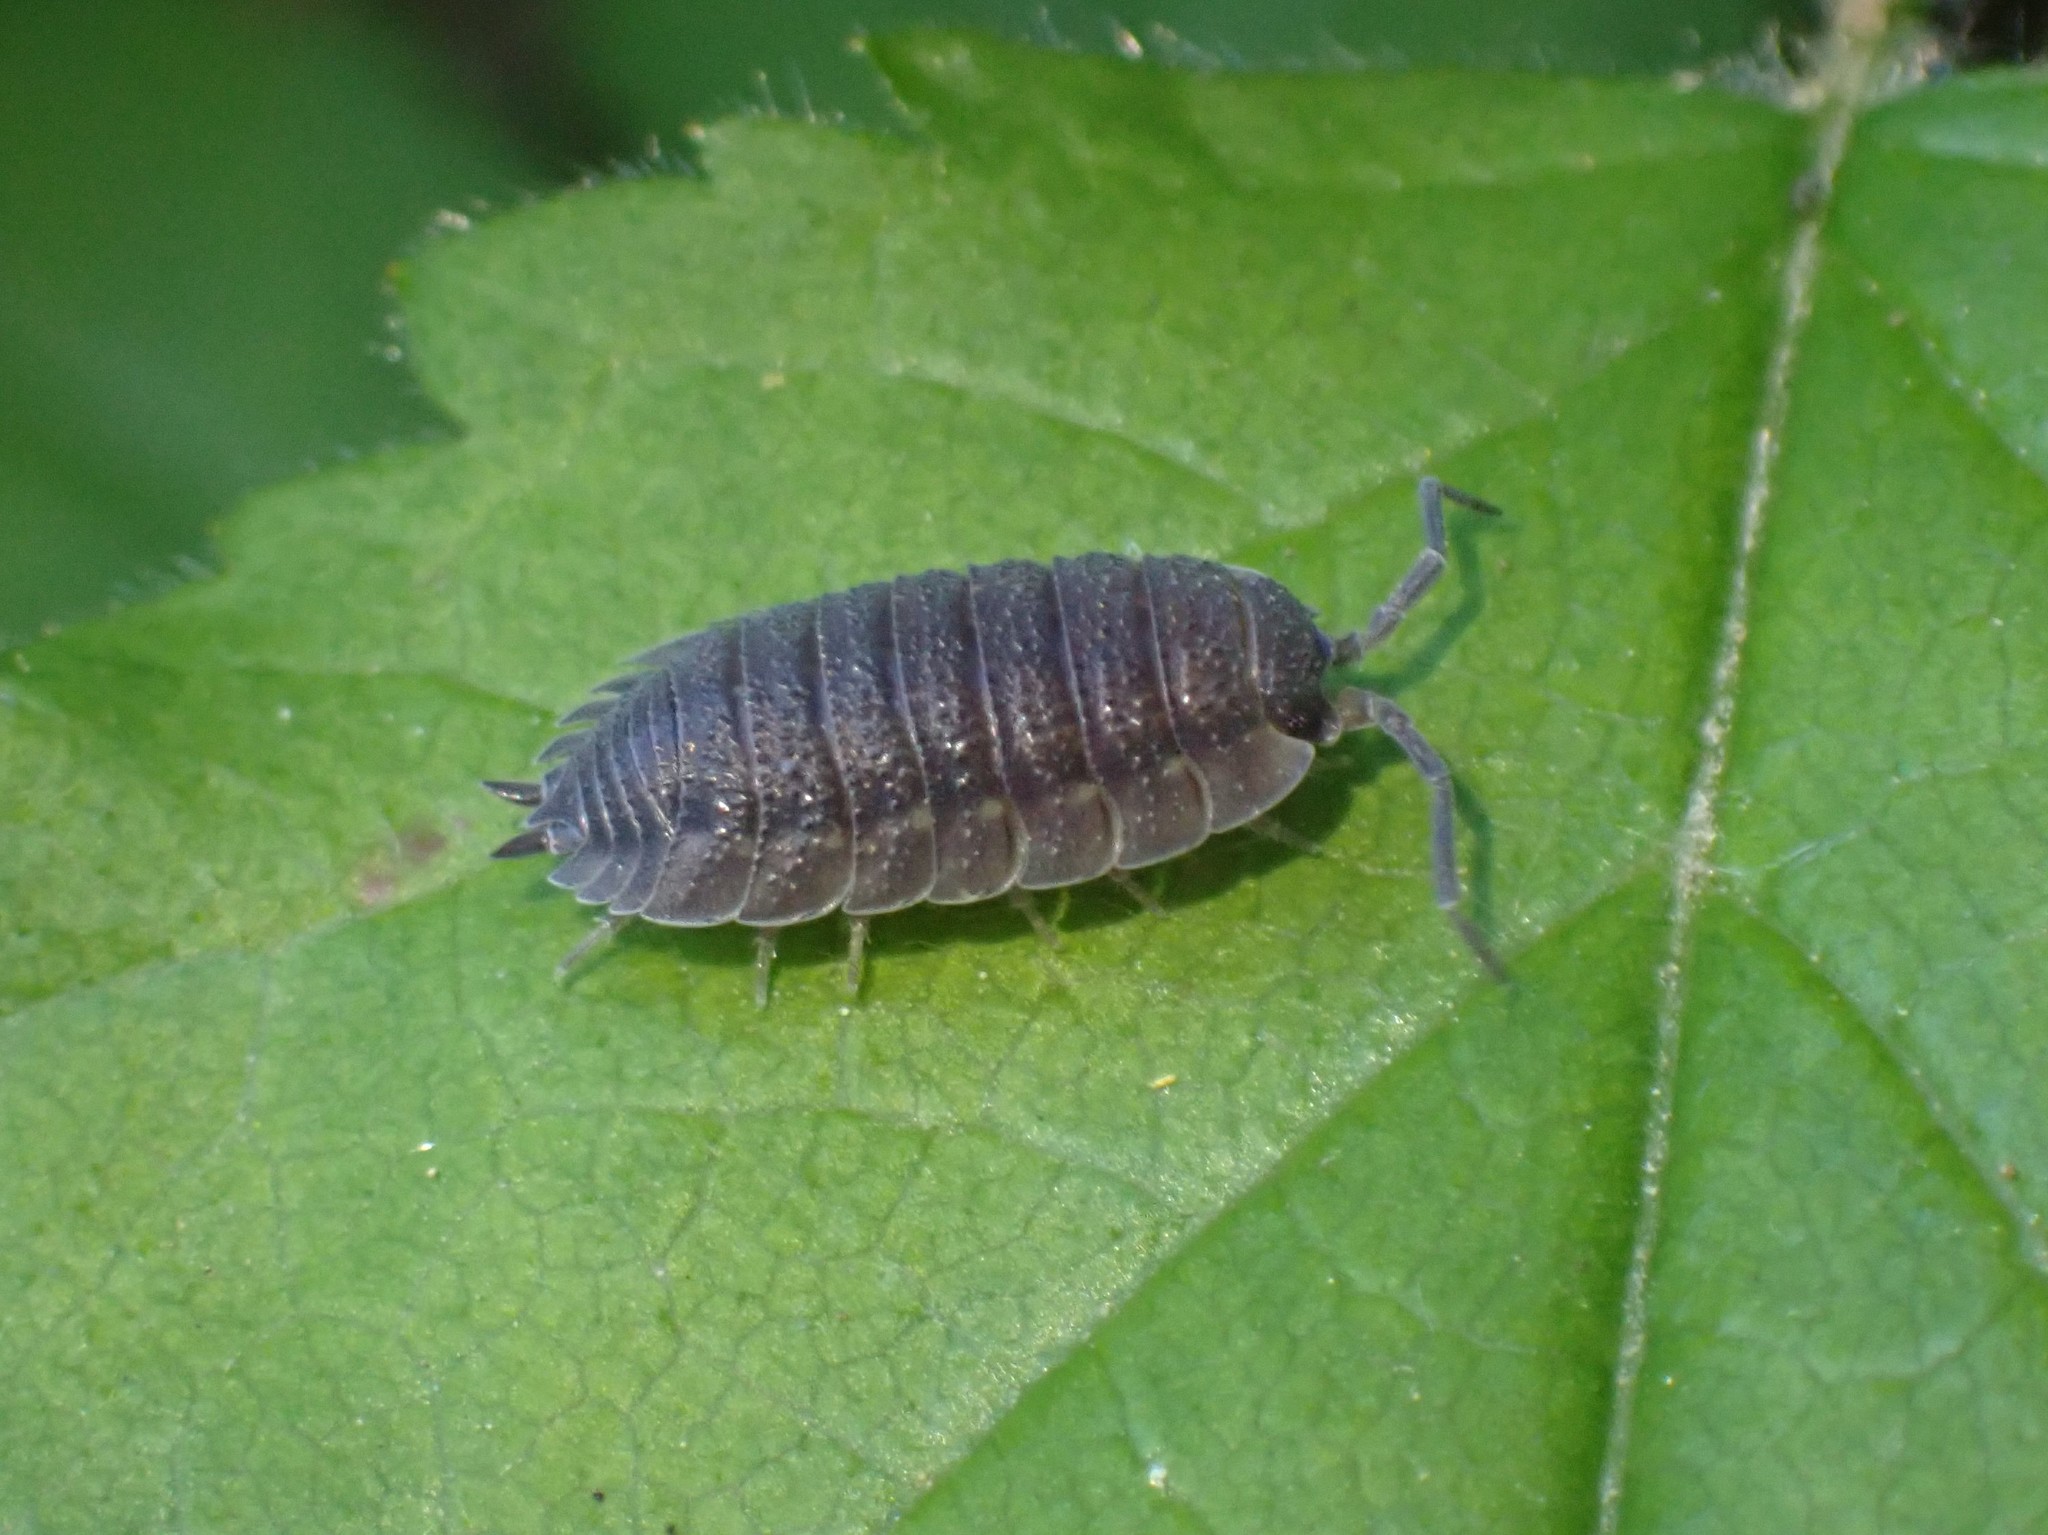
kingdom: Animalia
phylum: Arthropoda
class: Malacostraca
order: Isopoda
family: Porcellionidae
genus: Porcellio
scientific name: Porcellio scaber
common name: Common rough woodlouse
